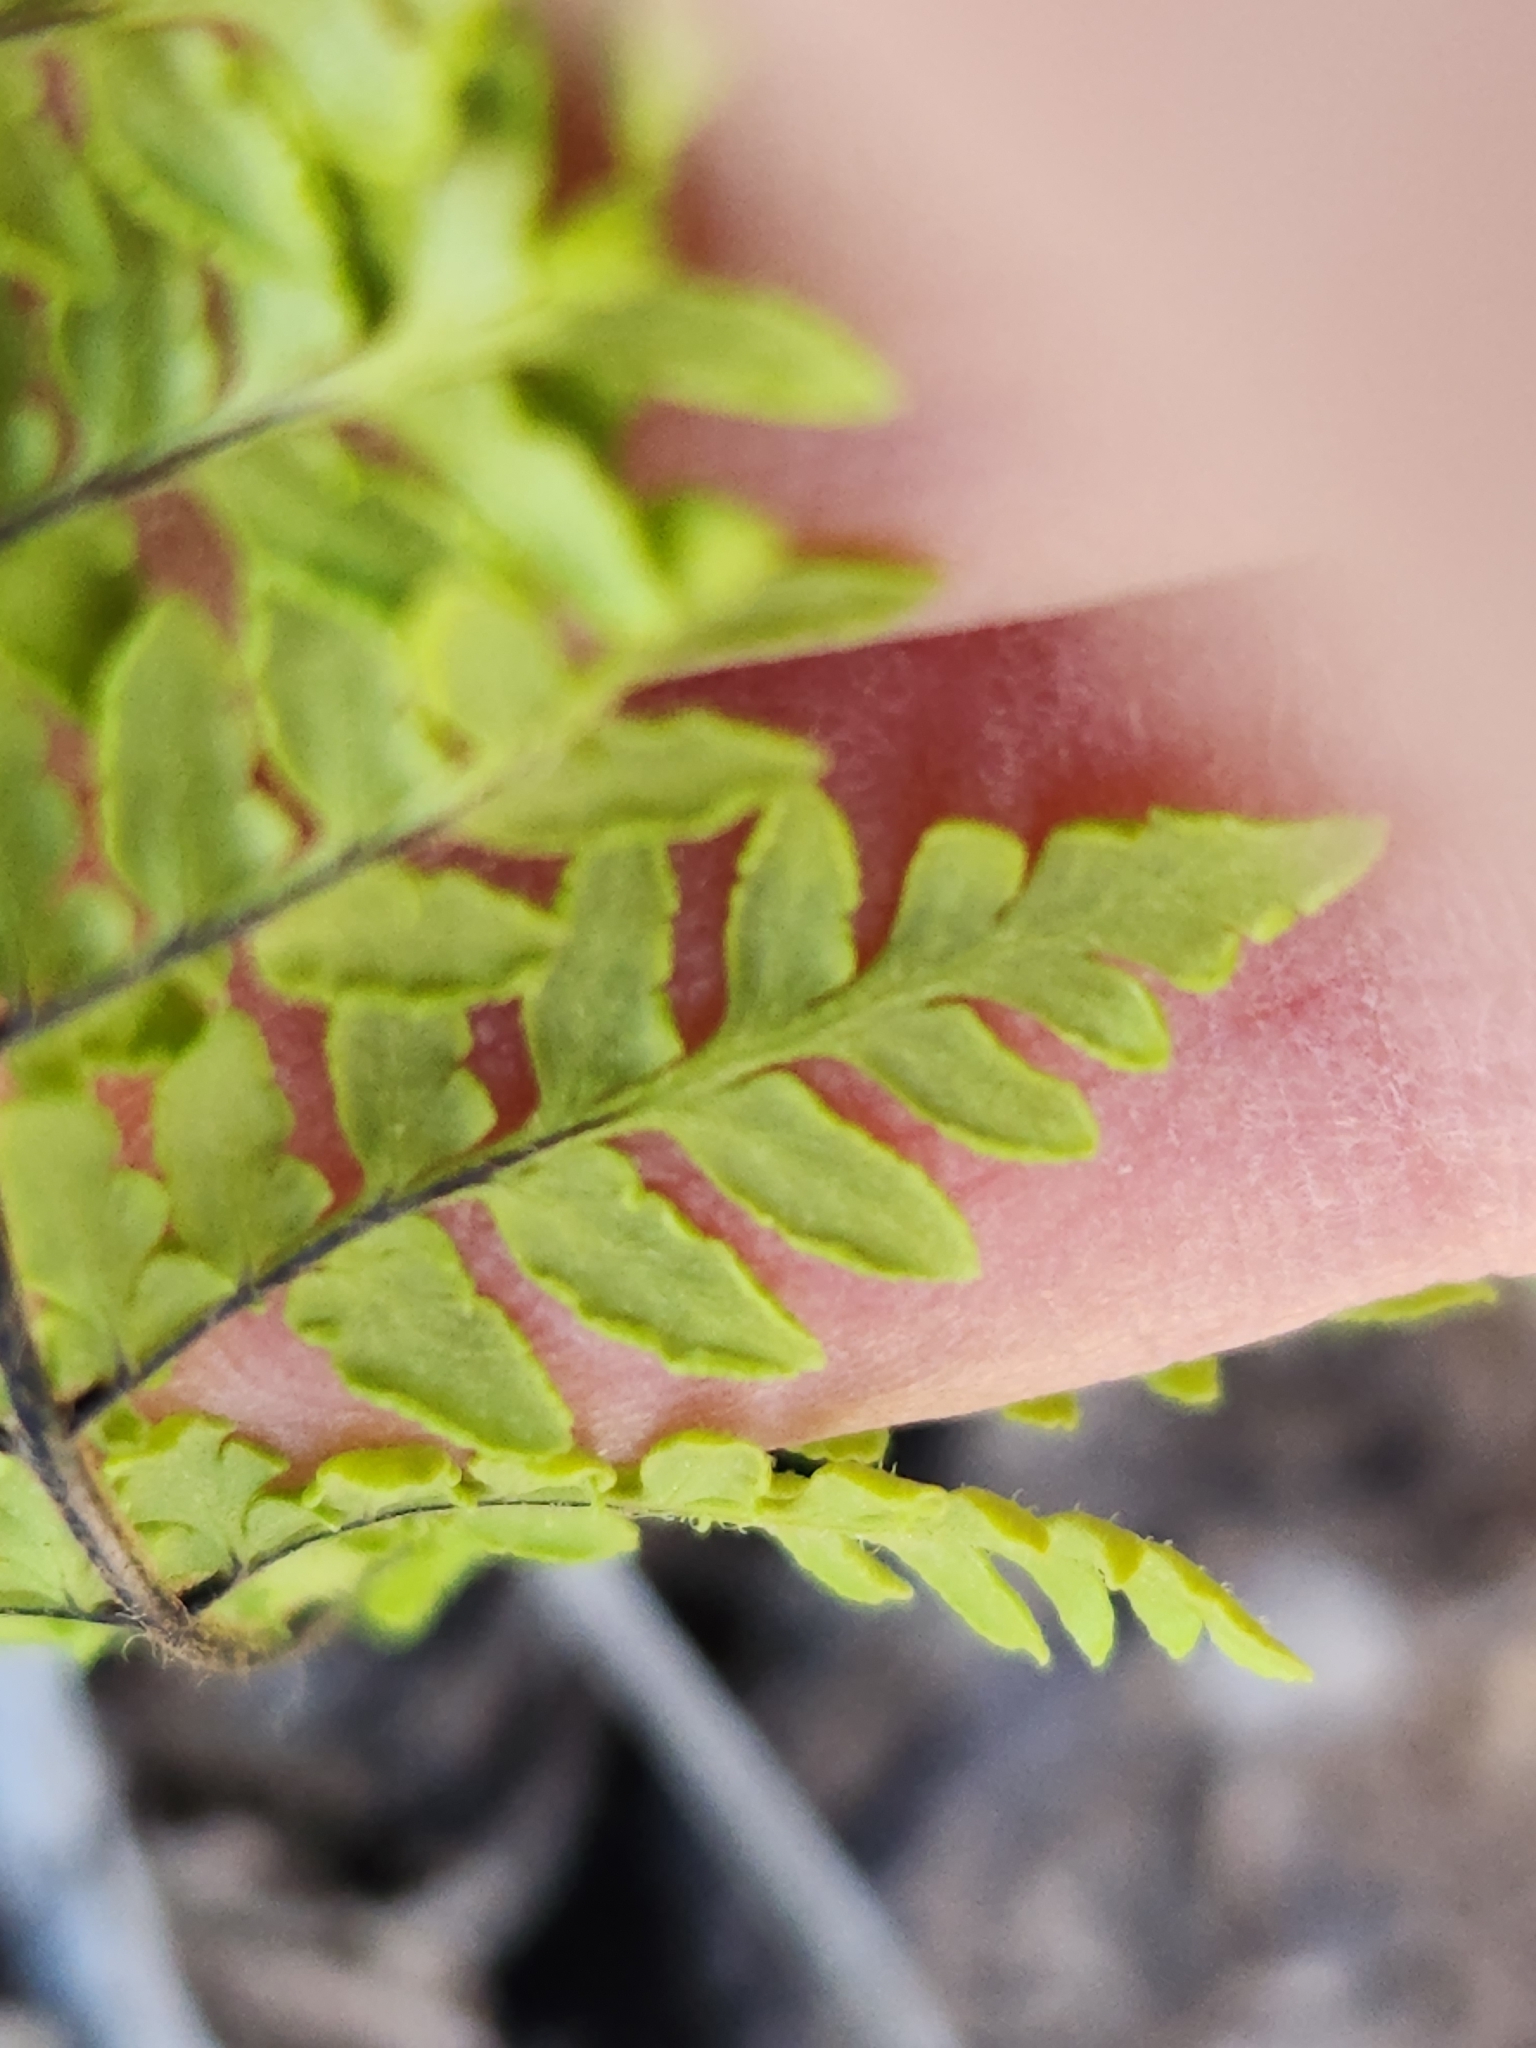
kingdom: Plantae
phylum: Tracheophyta
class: Polypodiopsida
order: Polypodiales
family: Pteridaceae
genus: Myriopteris
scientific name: Myriopteris alabamensis
